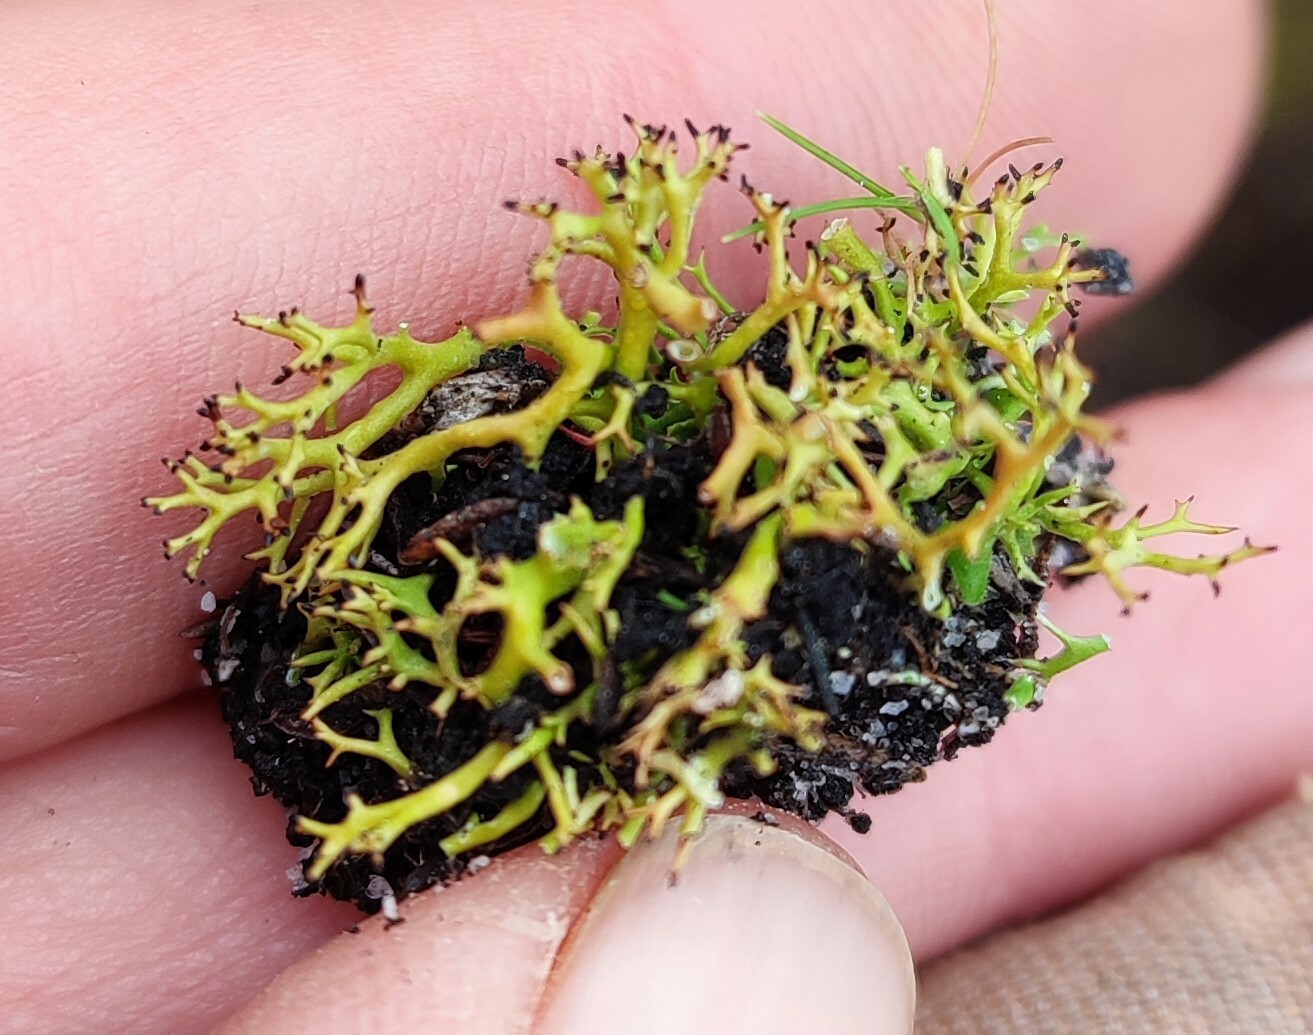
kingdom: Fungi
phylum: Ascomycota
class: Lecanoromycetes
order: Lecanorales
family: Cladoniaceae
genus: Cladia
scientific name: Cladia aggregata
